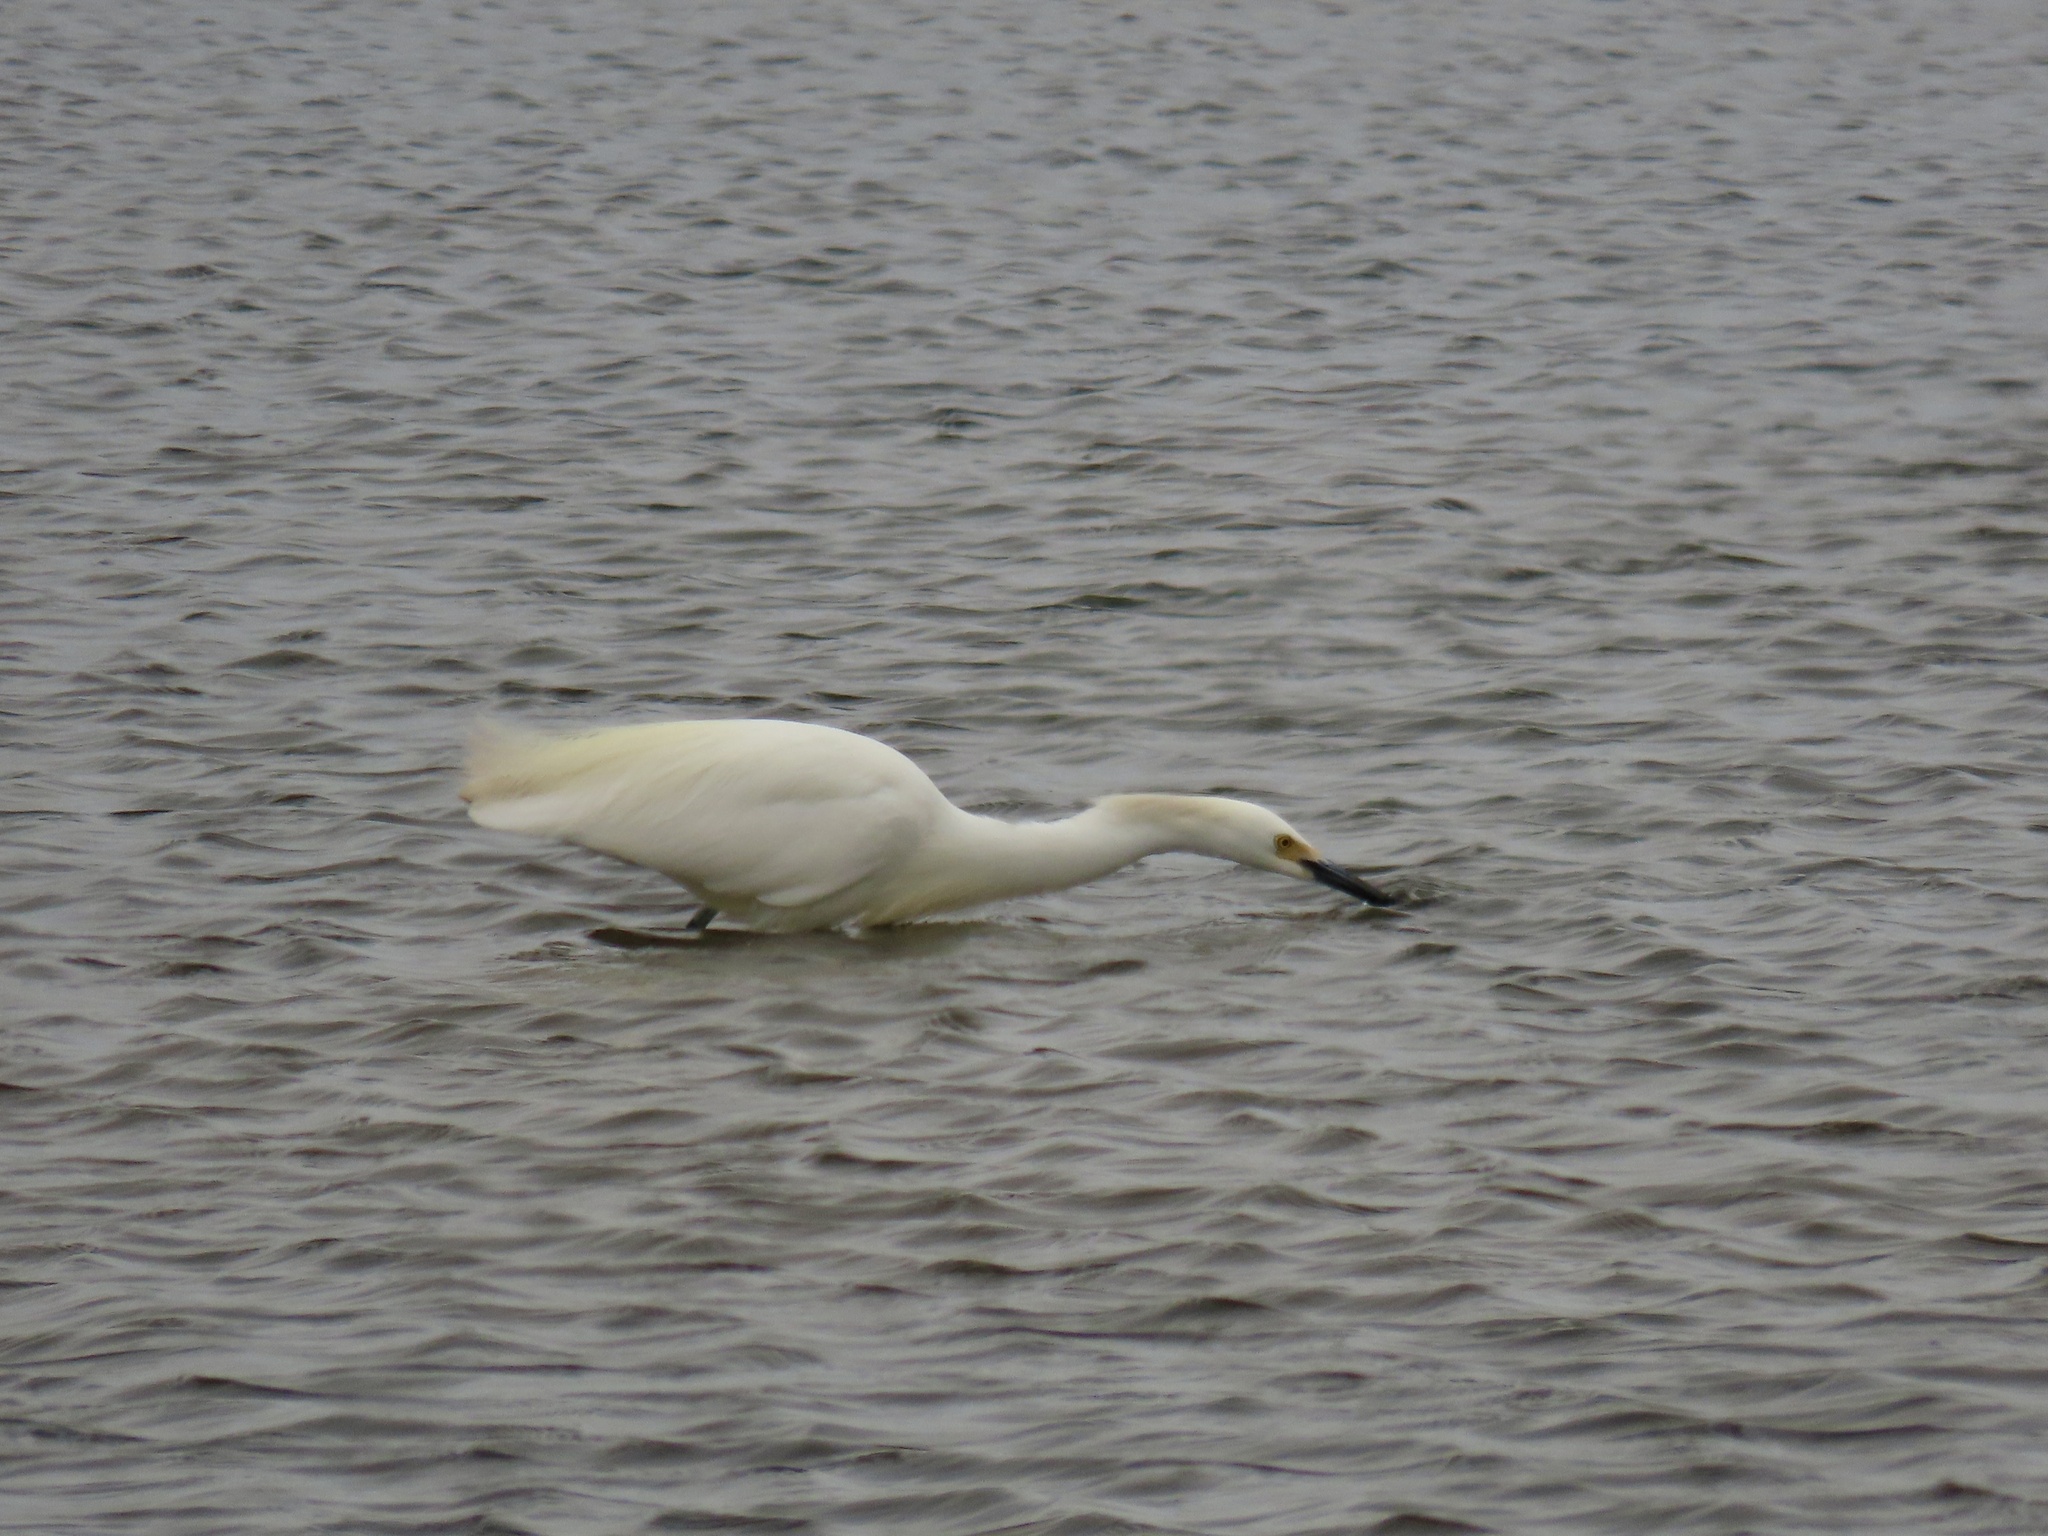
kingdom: Animalia
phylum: Chordata
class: Aves
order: Pelecaniformes
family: Ardeidae
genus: Egretta
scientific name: Egretta thula
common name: Snowy egret
